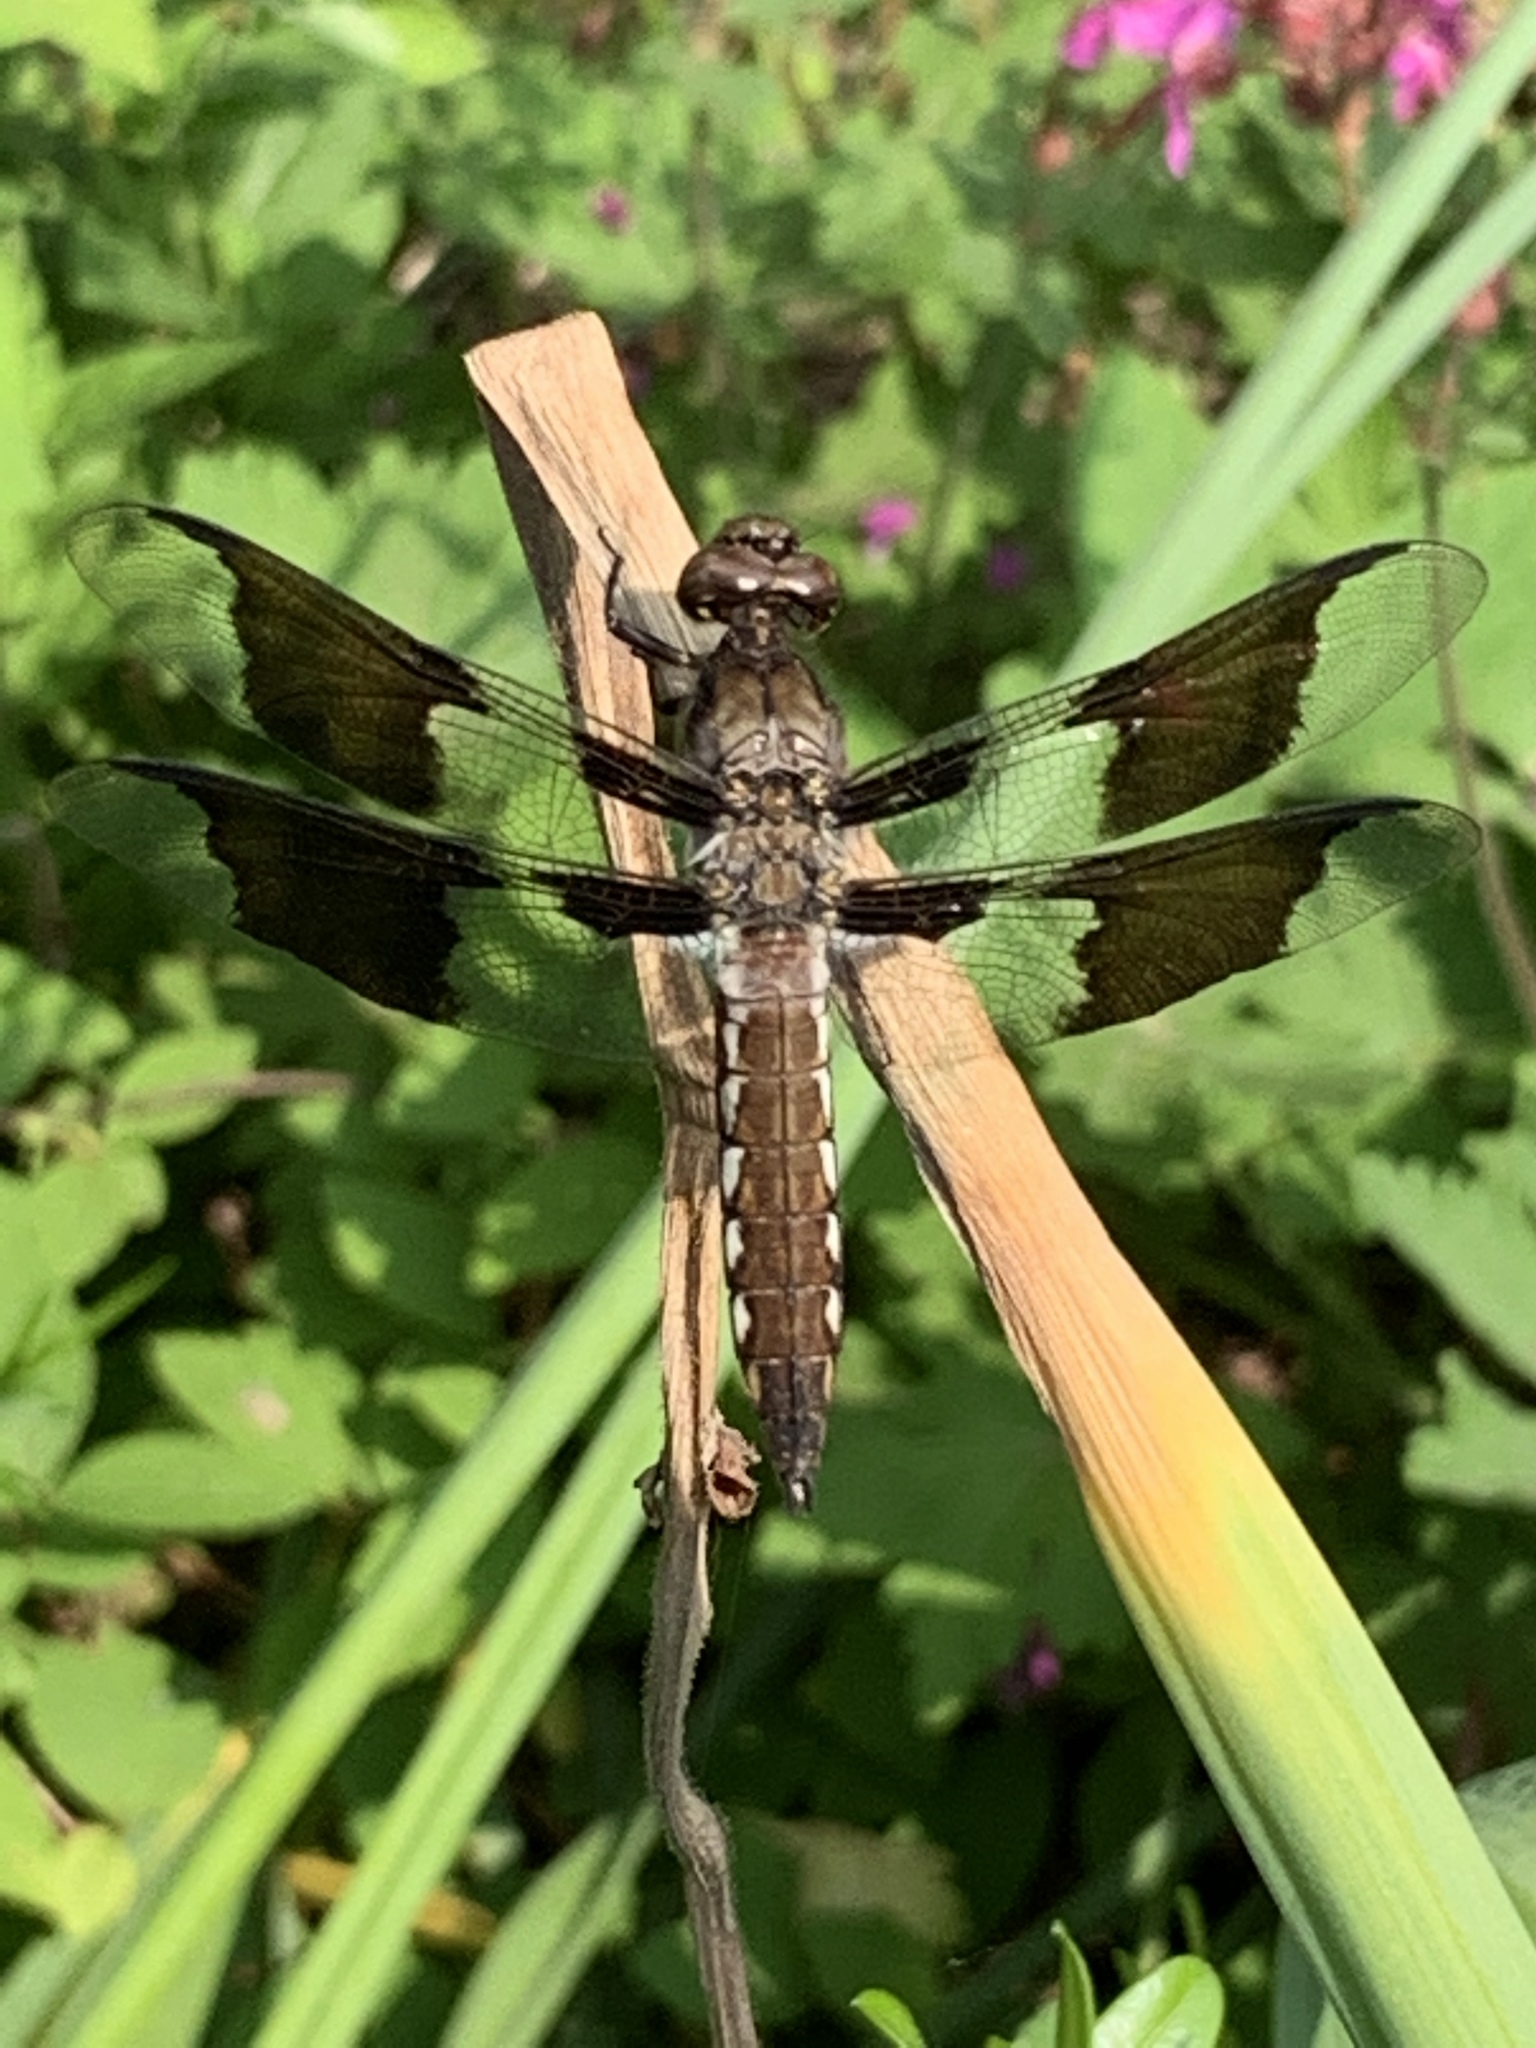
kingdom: Animalia
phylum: Arthropoda
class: Insecta
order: Odonata
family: Libellulidae
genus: Plathemis
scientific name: Plathemis lydia
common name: Common whitetail
